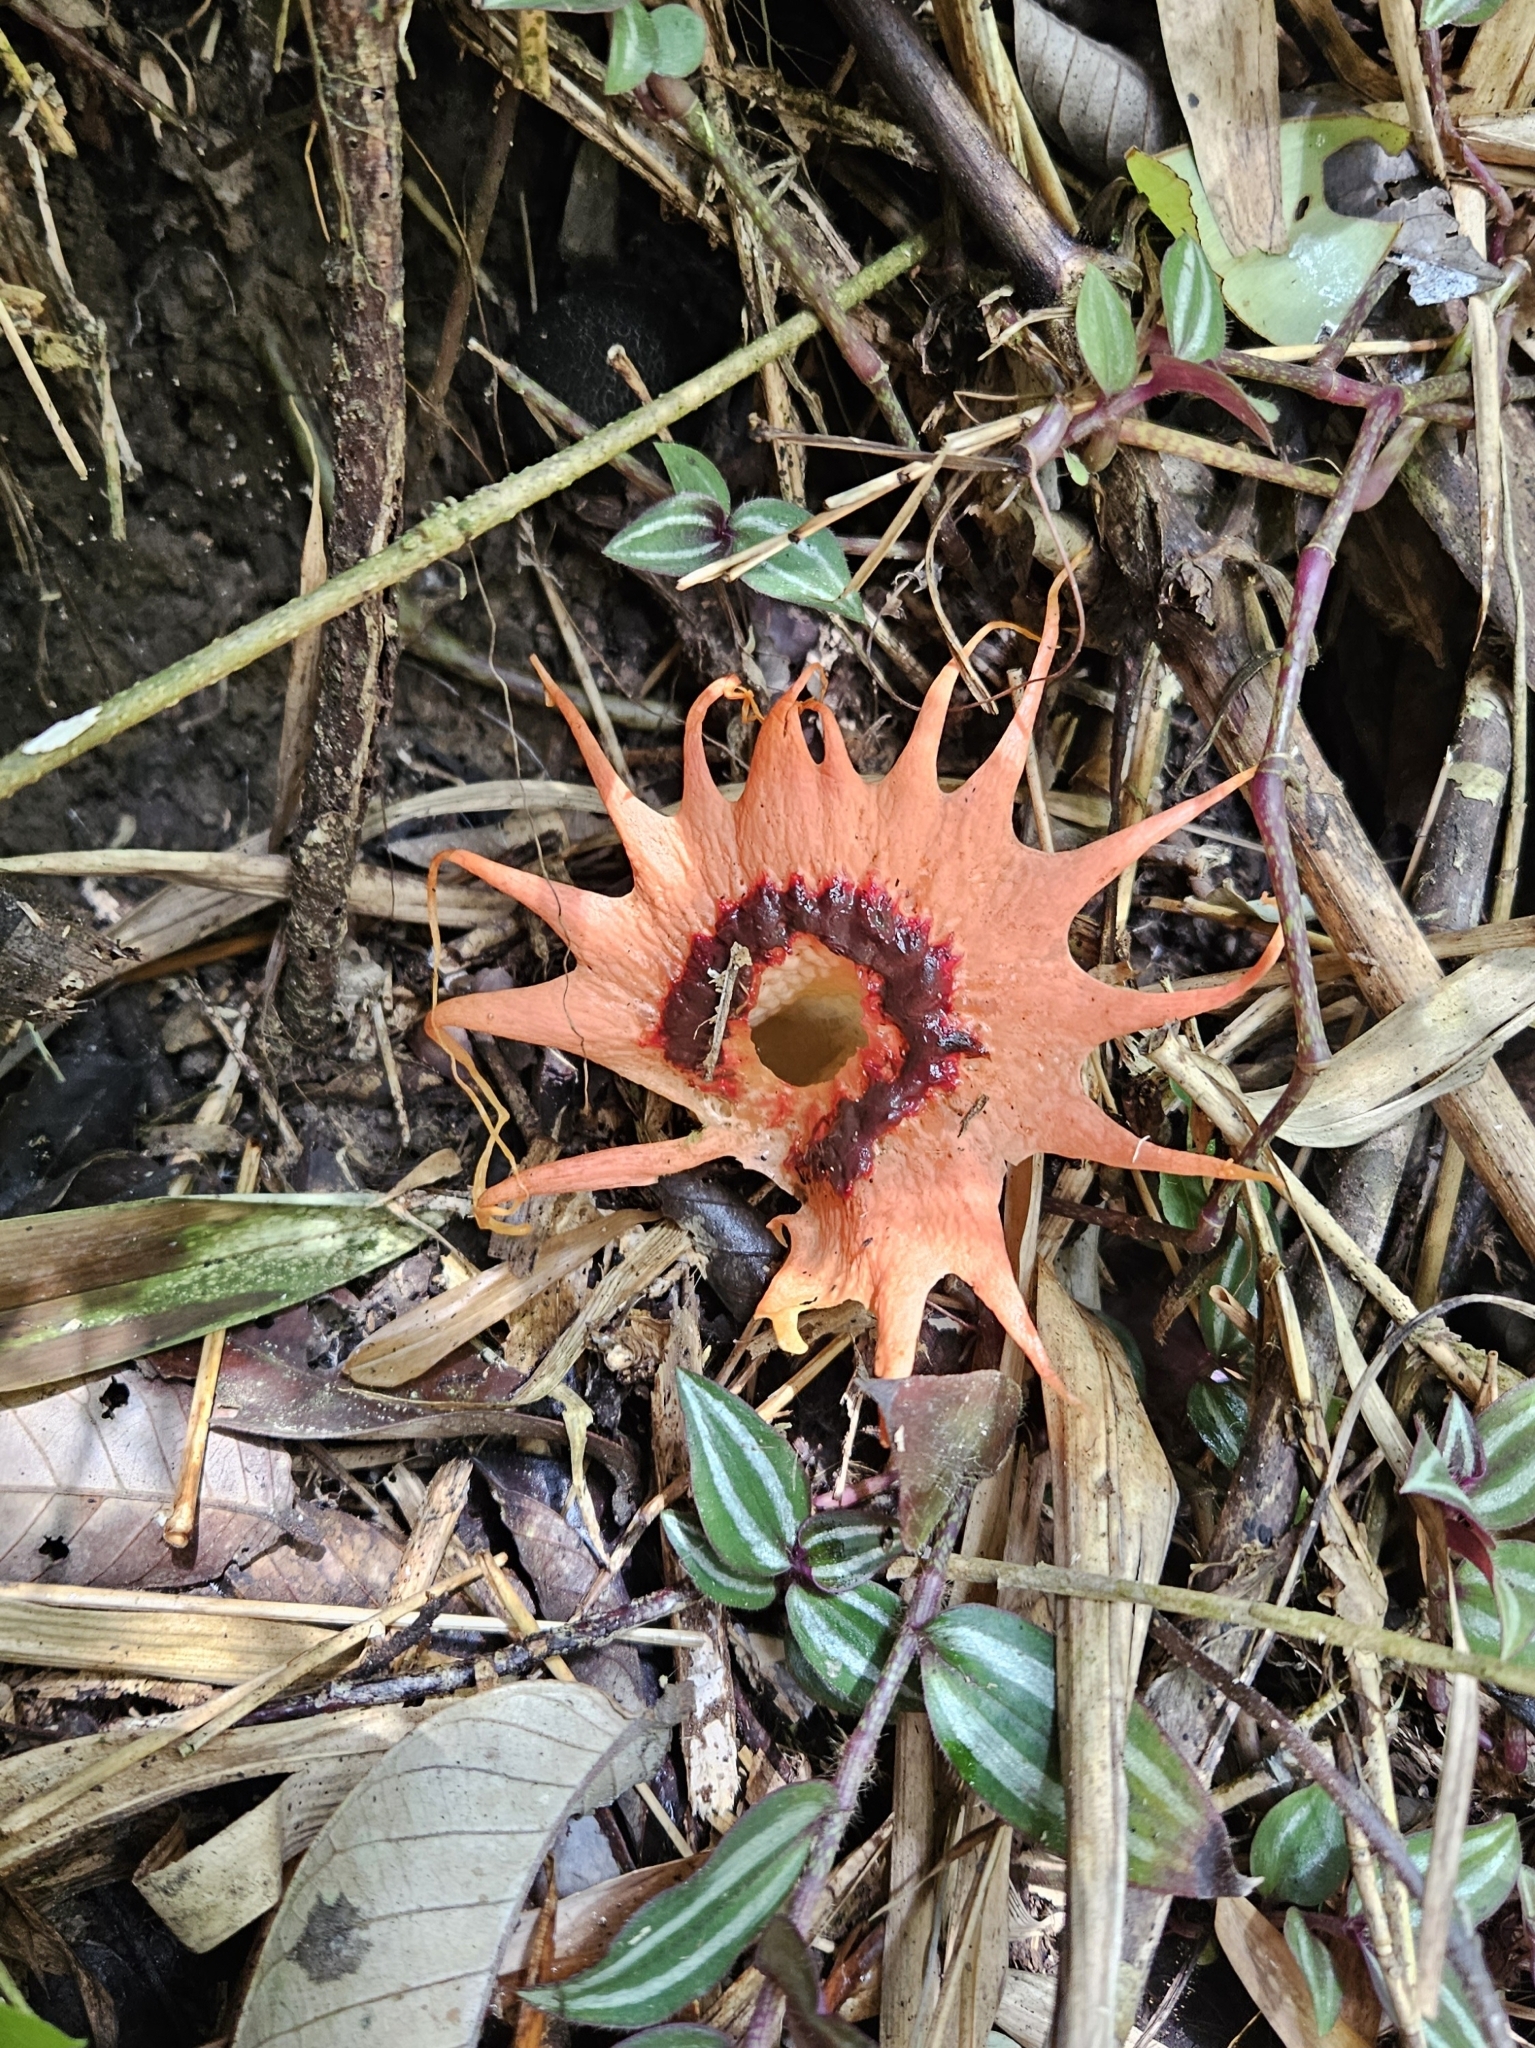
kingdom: Fungi
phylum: Basidiomycota
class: Agaricomycetes
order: Phallales
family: Phallaceae
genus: Aseroe
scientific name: Aseroe rubra
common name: Starfish fungus
